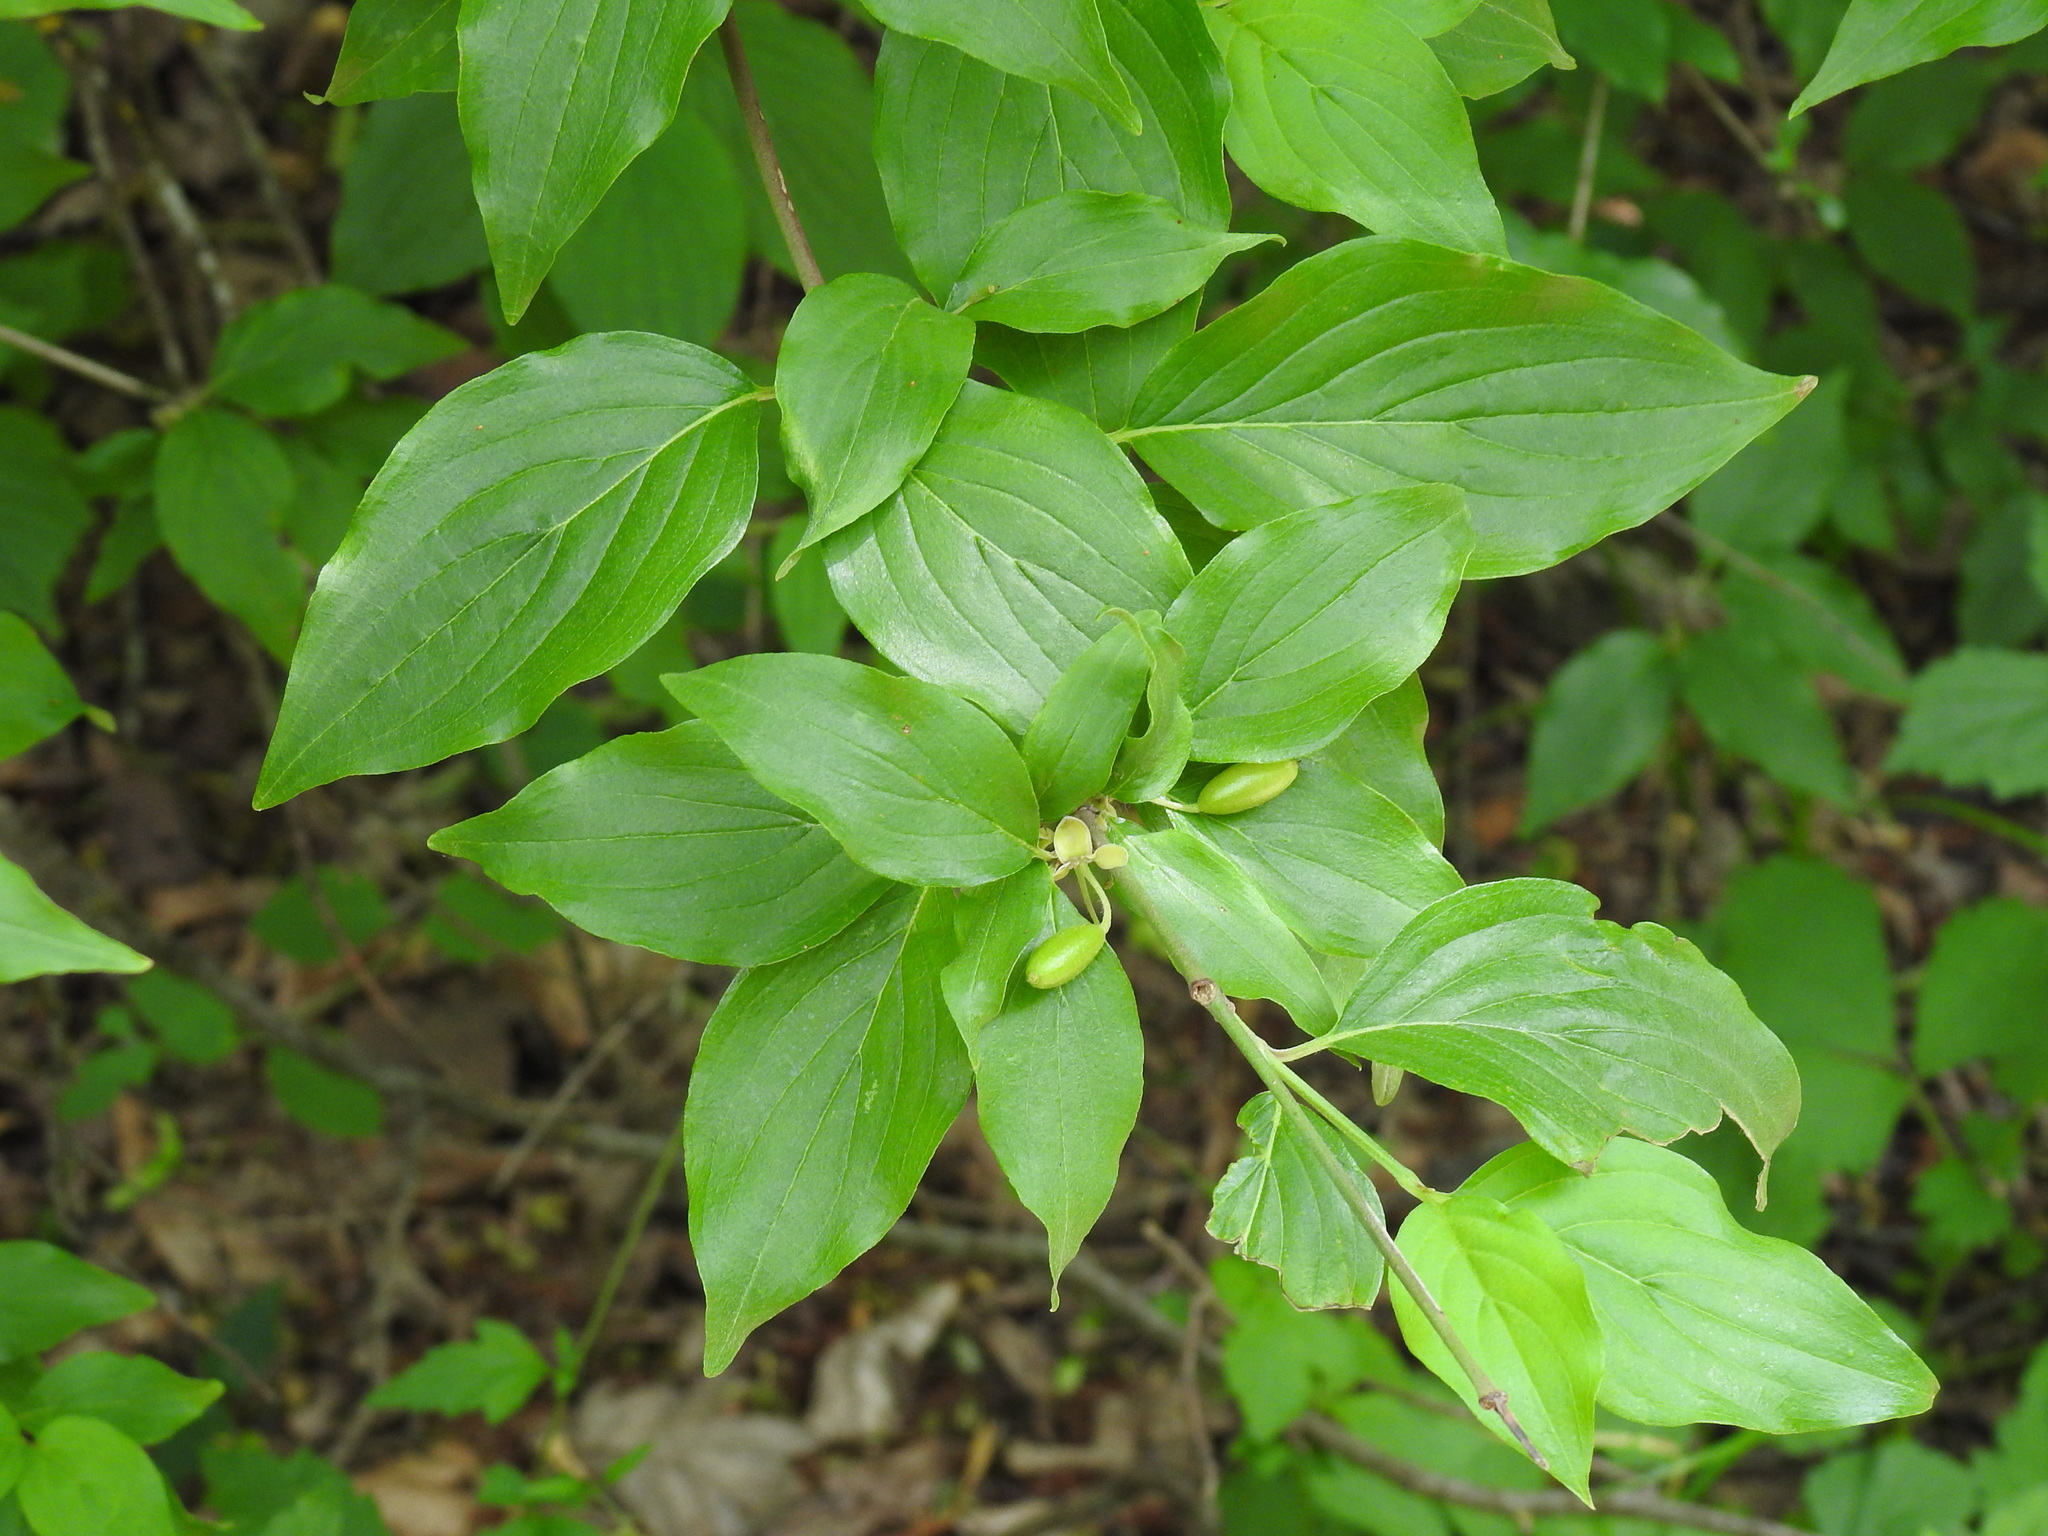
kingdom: Plantae
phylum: Tracheophyta
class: Magnoliopsida
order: Cornales
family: Cornaceae
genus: Cornus
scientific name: Cornus mas
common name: Cornelian-cherry
